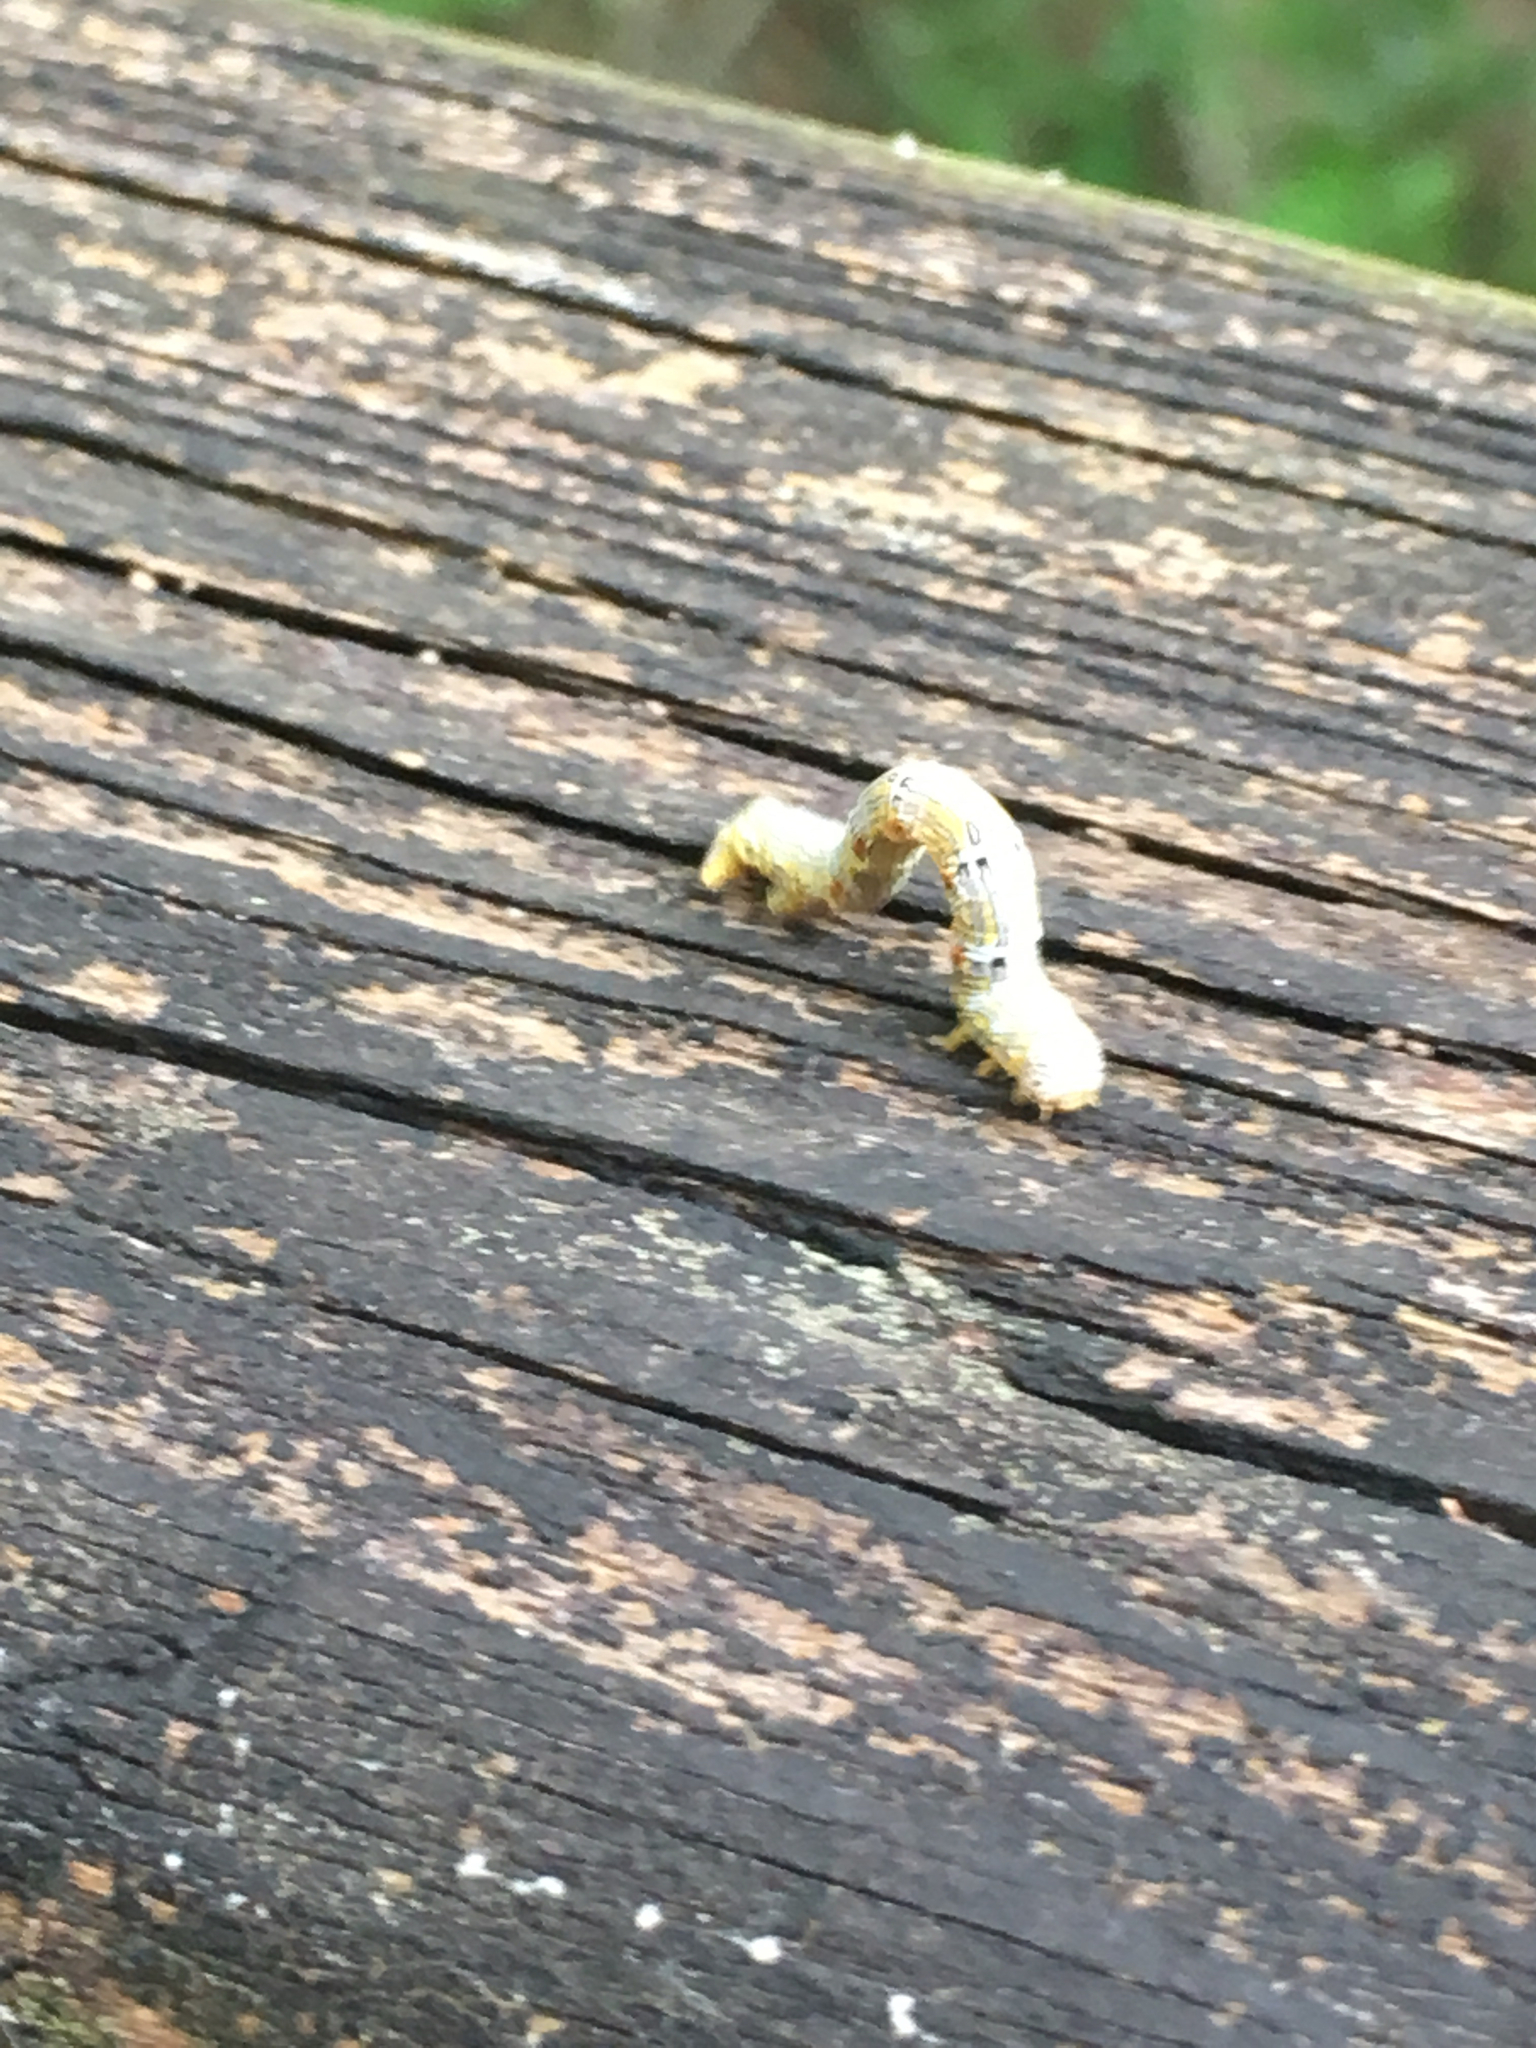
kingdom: Animalia
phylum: Arthropoda
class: Insecta
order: Lepidoptera
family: Geometridae
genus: Lycia
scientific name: Lycia ypsilon
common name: Wooly gray
